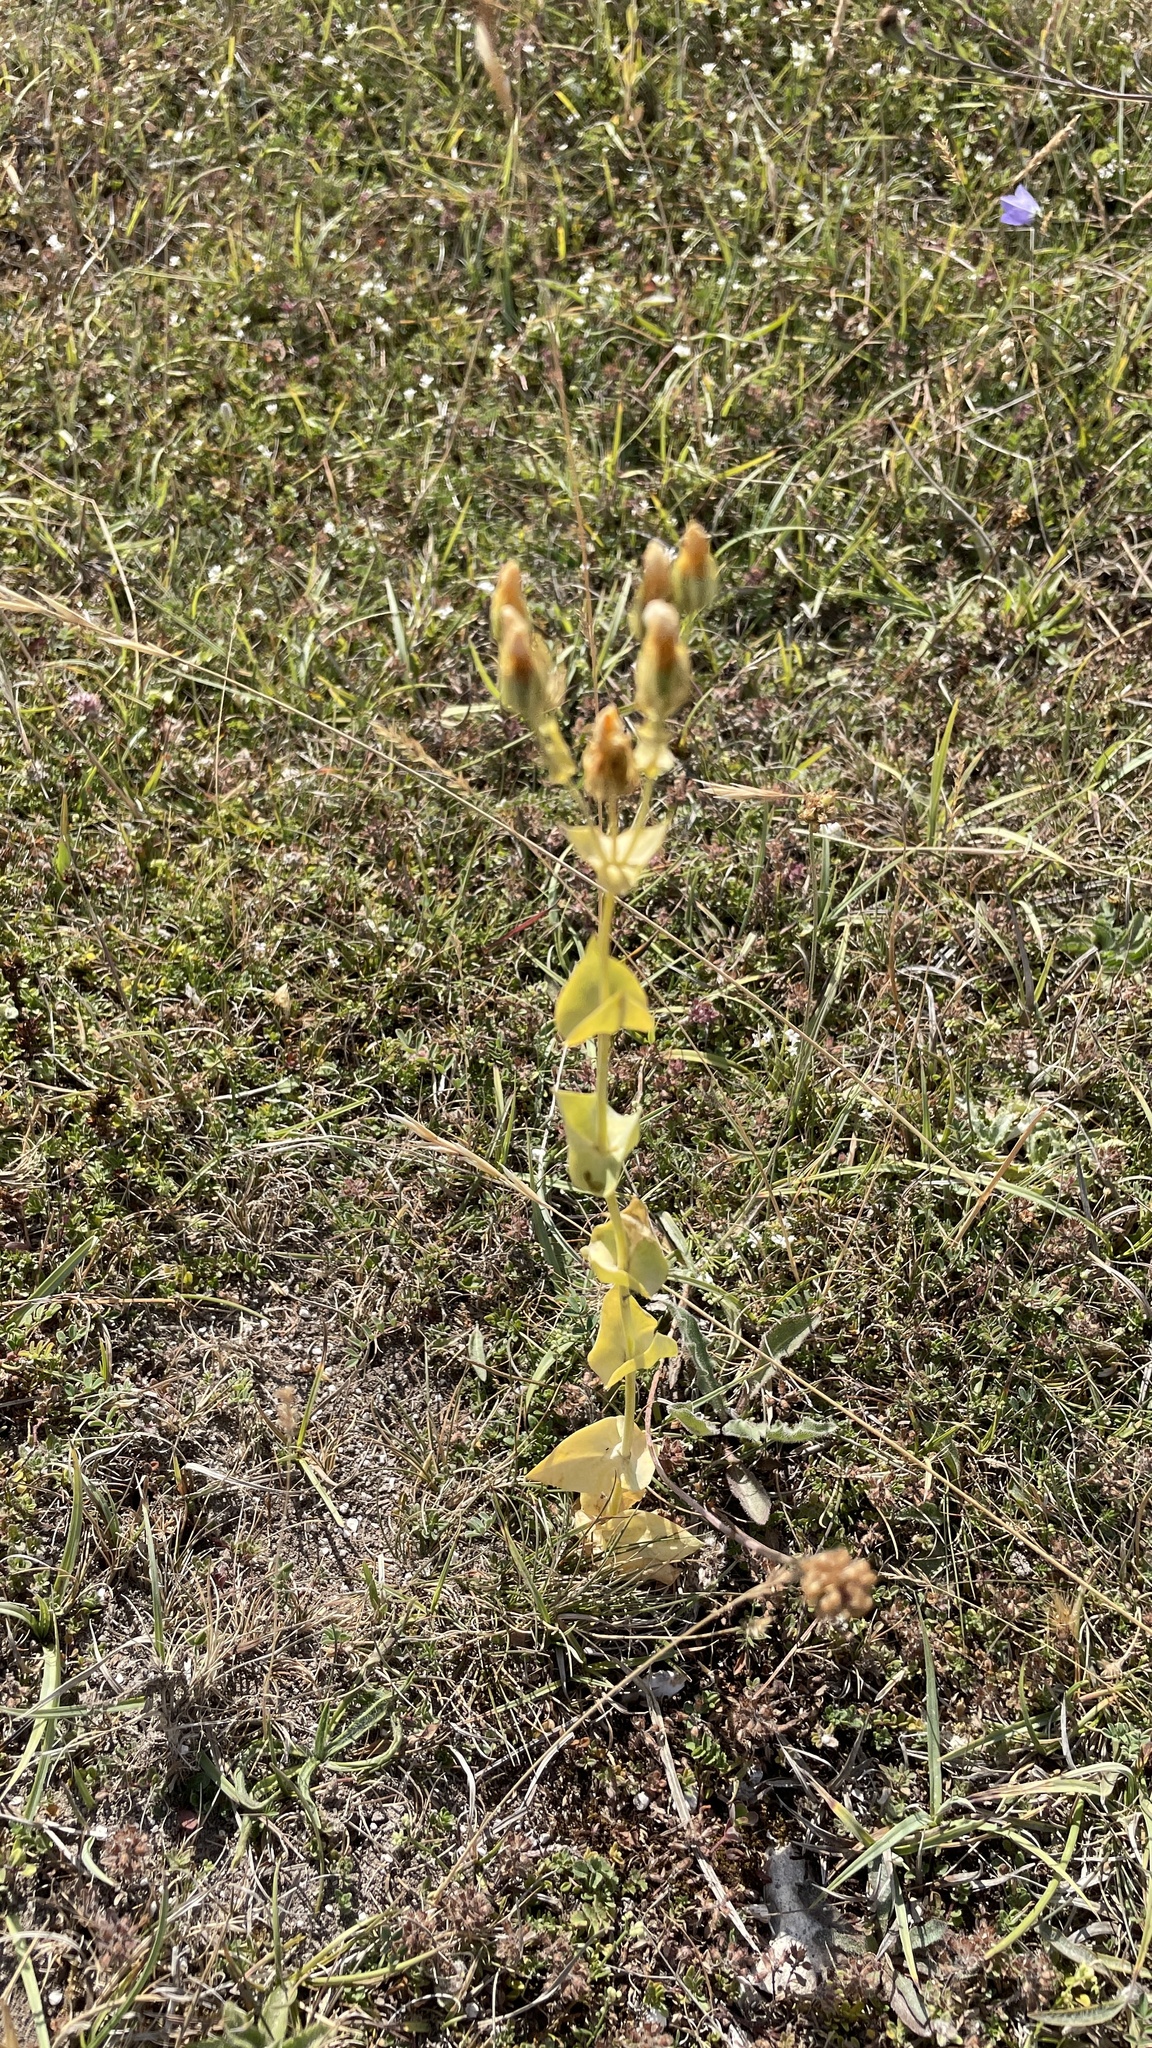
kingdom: Plantae
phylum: Tracheophyta
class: Magnoliopsida
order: Gentianales
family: Gentianaceae
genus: Blackstonia
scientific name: Blackstonia perfoliata
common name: Yellow-wort
